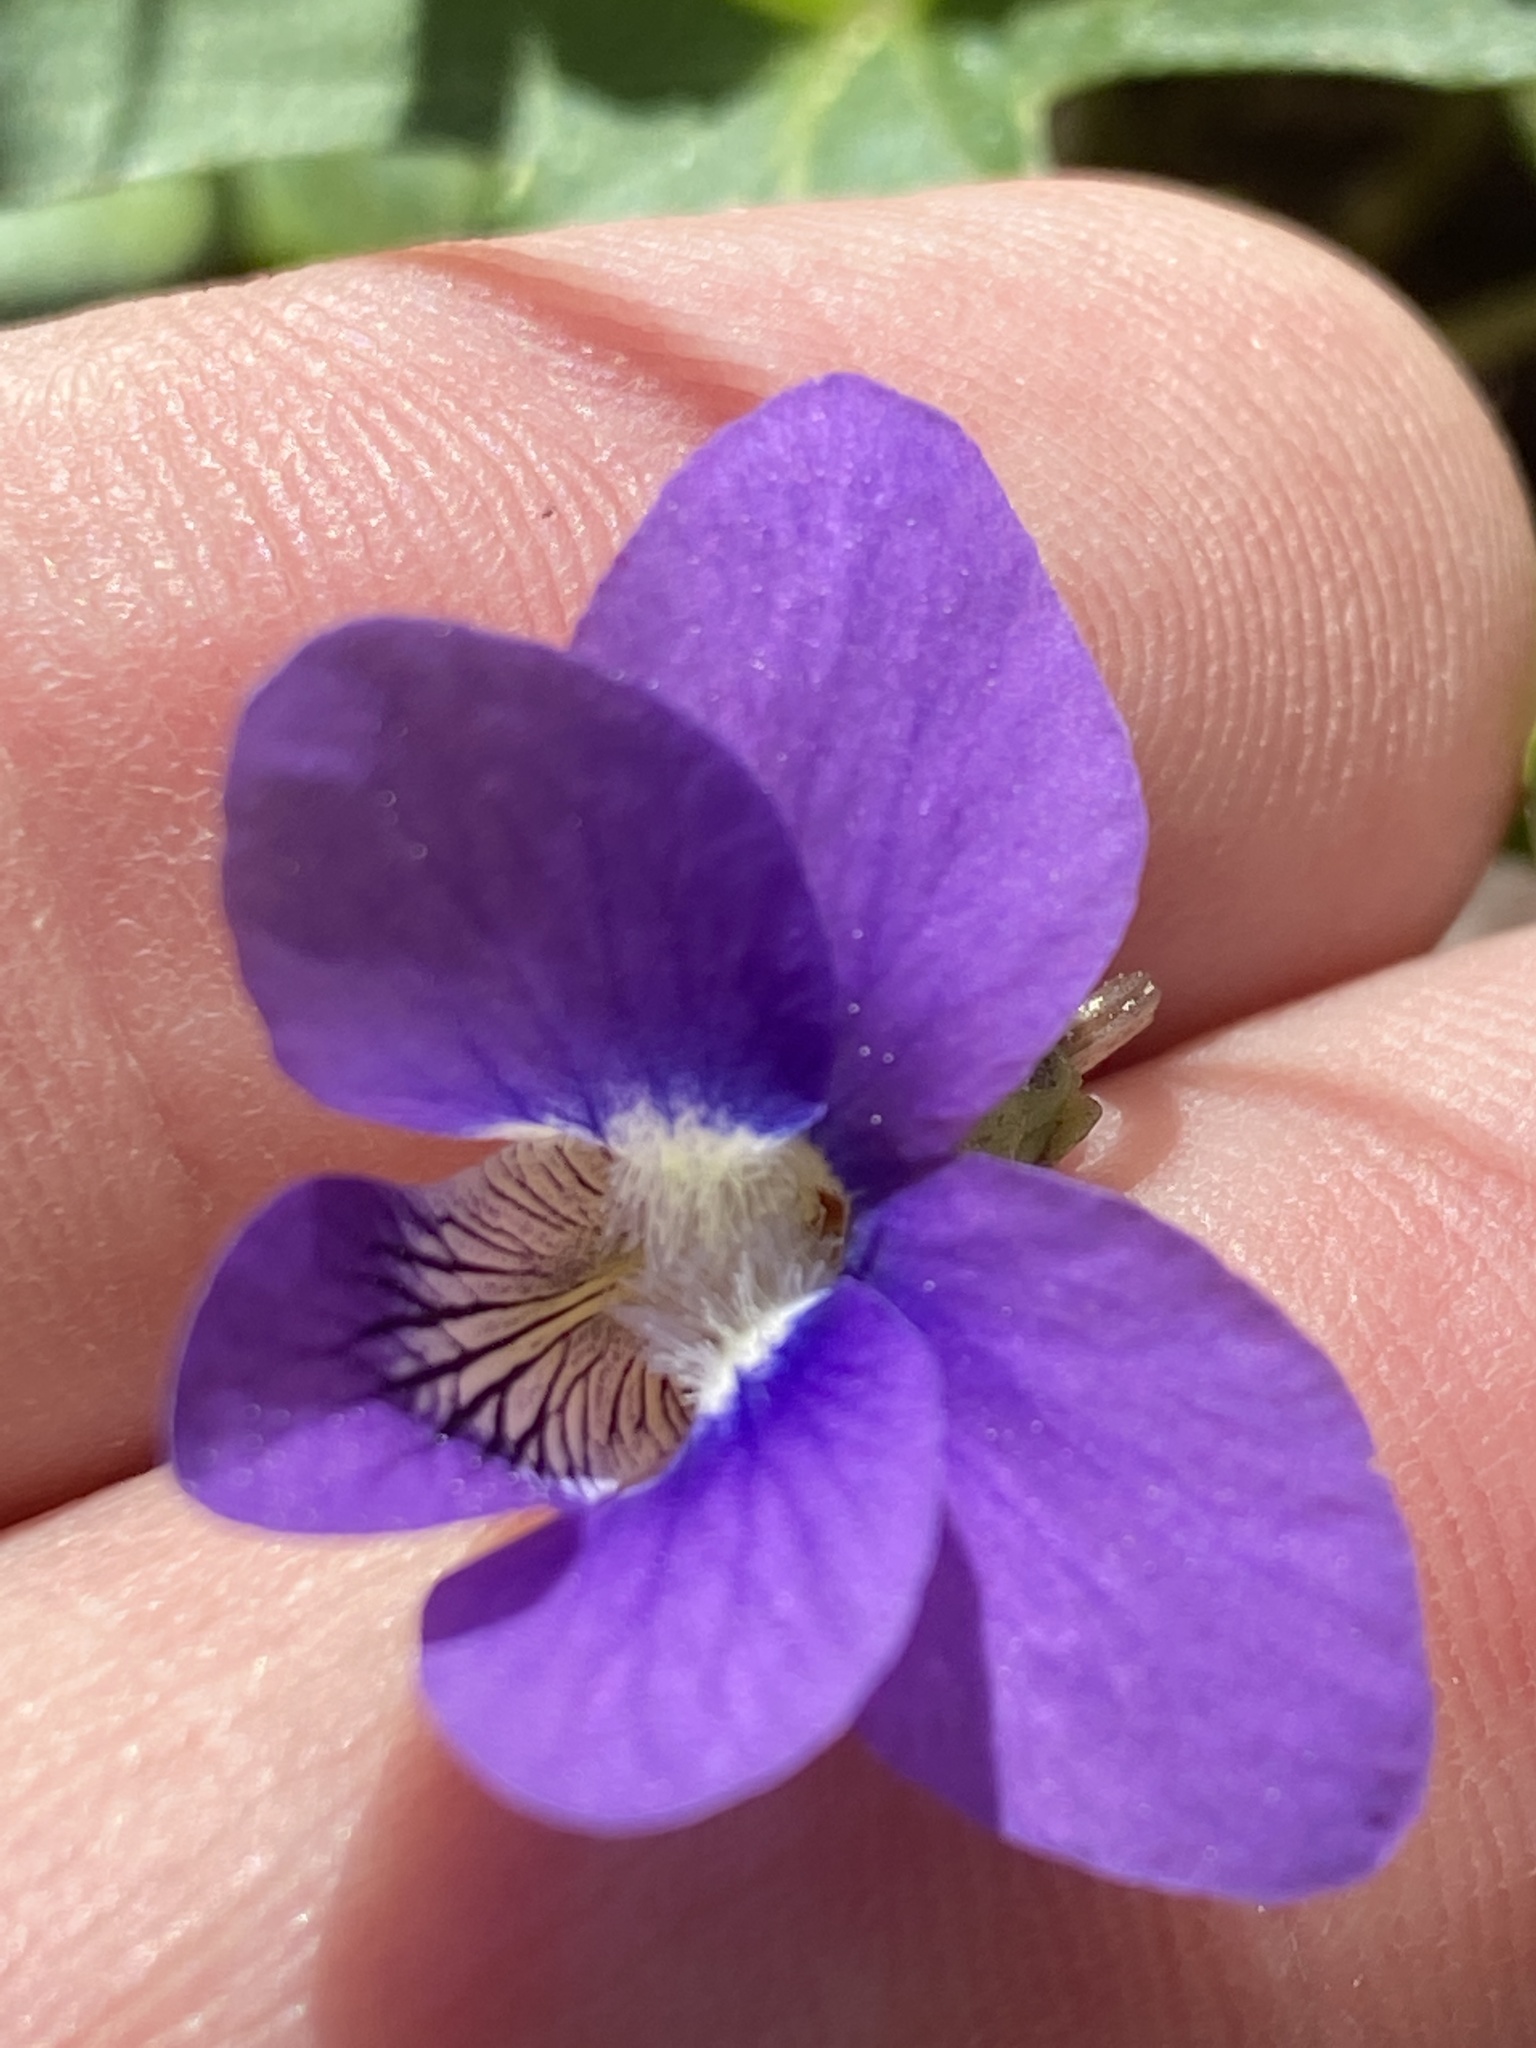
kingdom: Plantae
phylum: Tracheophyta
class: Magnoliopsida
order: Malpighiales
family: Violaceae
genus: Viola
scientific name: Viola palmata
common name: Early blue violet
